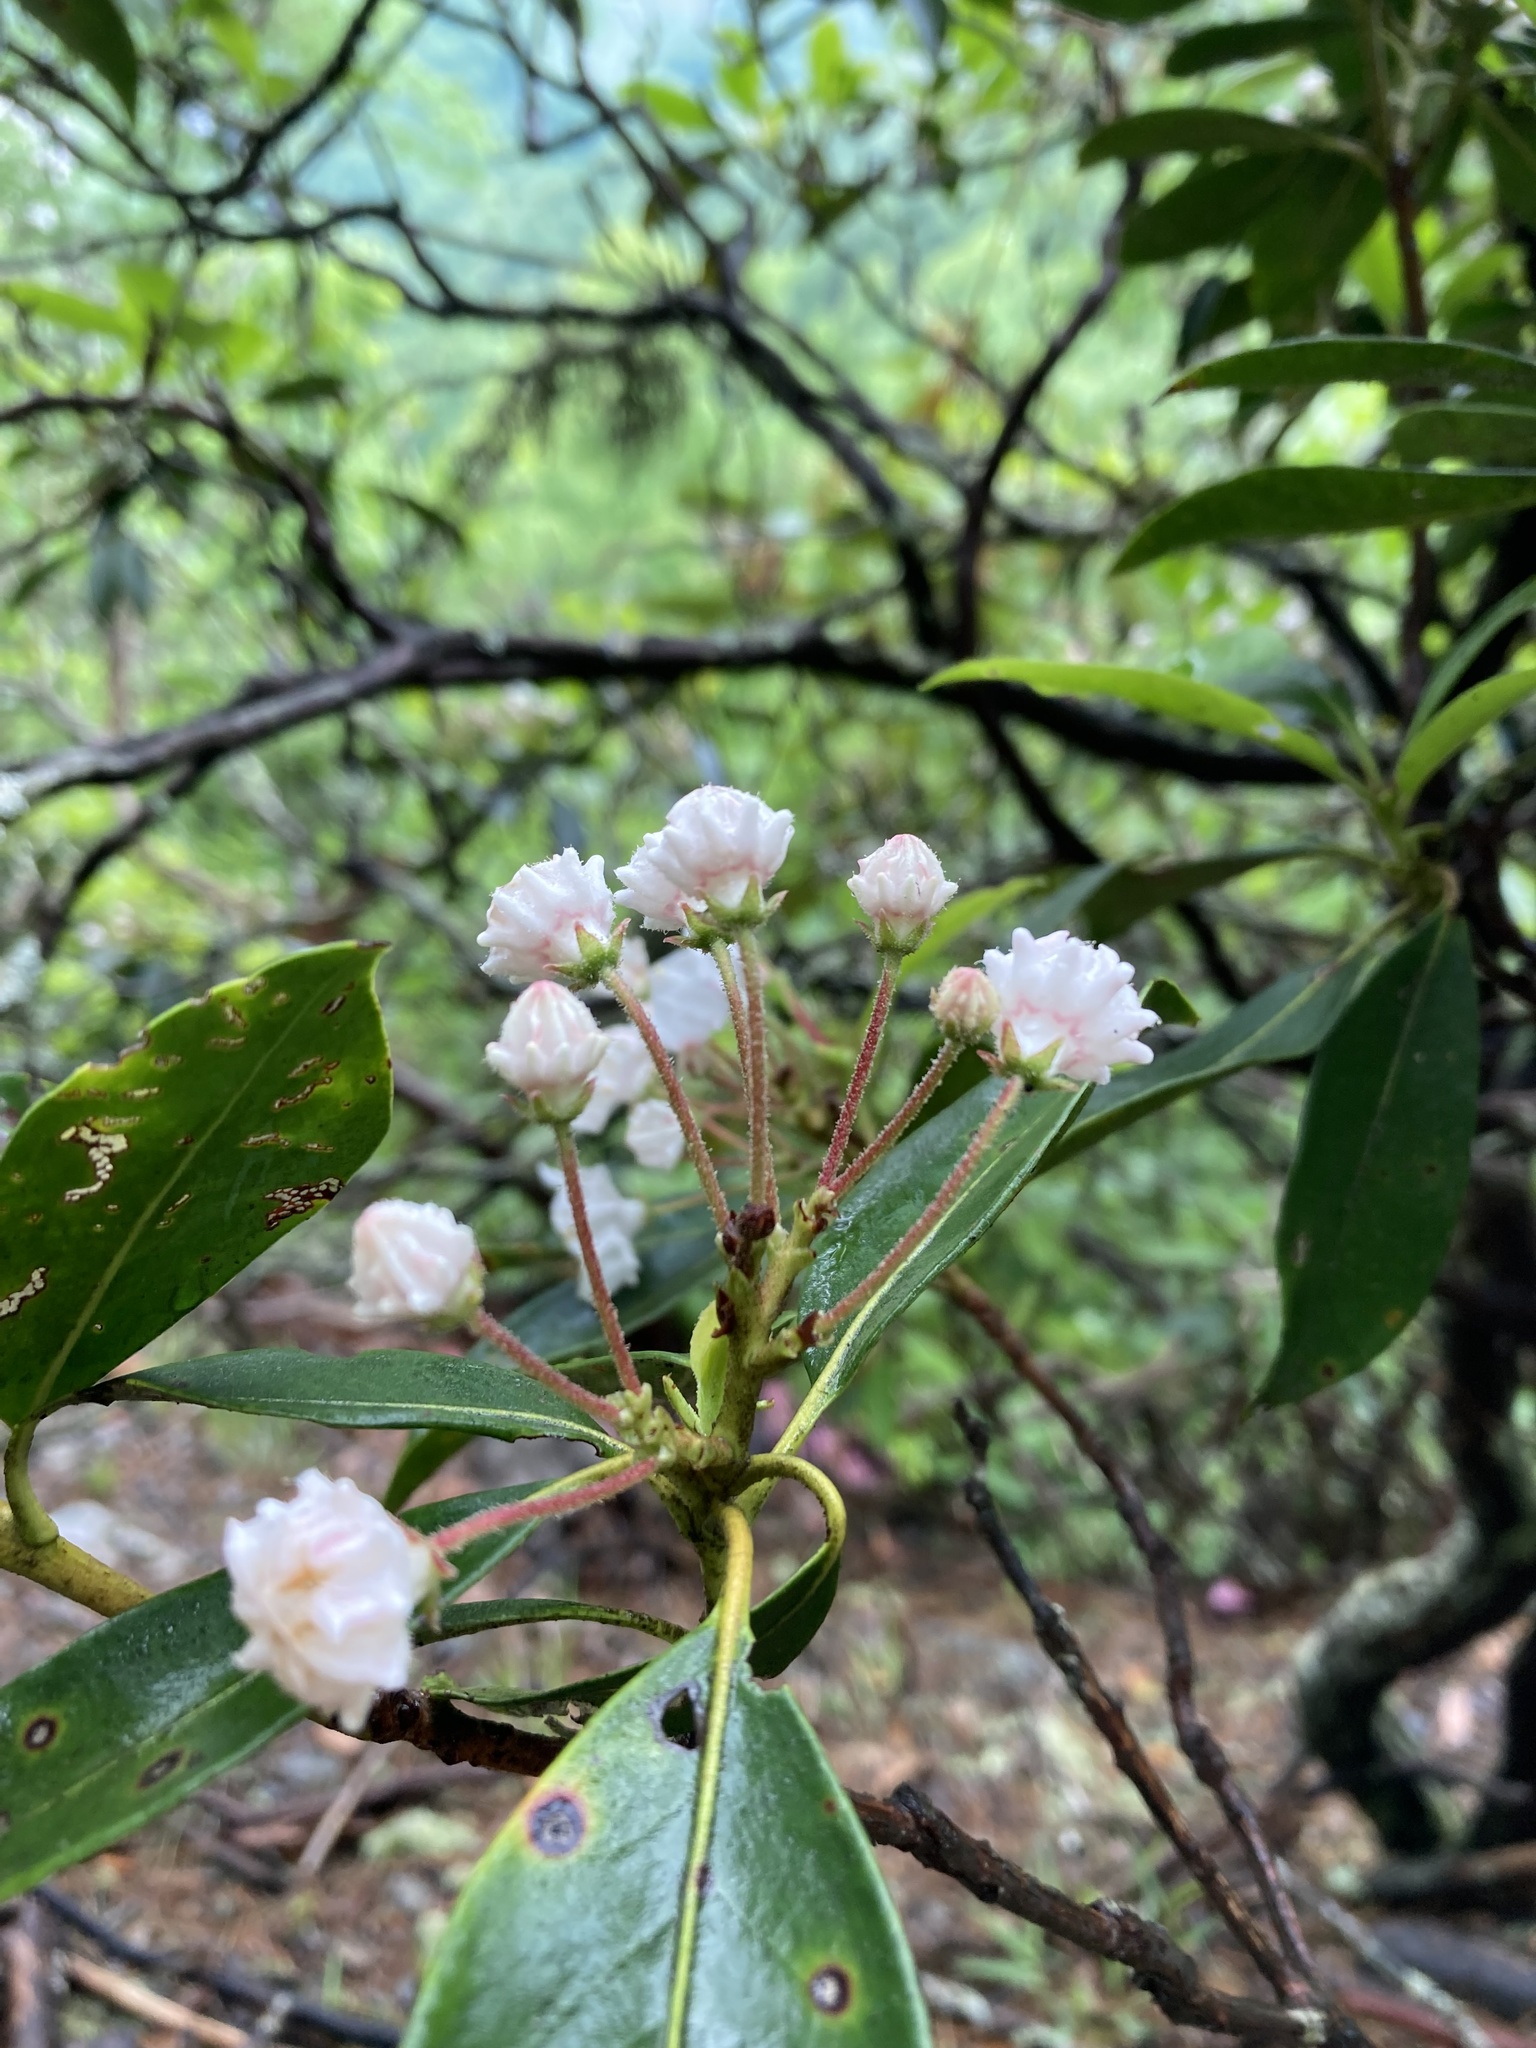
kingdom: Plantae
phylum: Tracheophyta
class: Magnoliopsida
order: Ericales
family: Ericaceae
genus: Kalmia
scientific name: Kalmia latifolia
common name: Mountain-laurel
